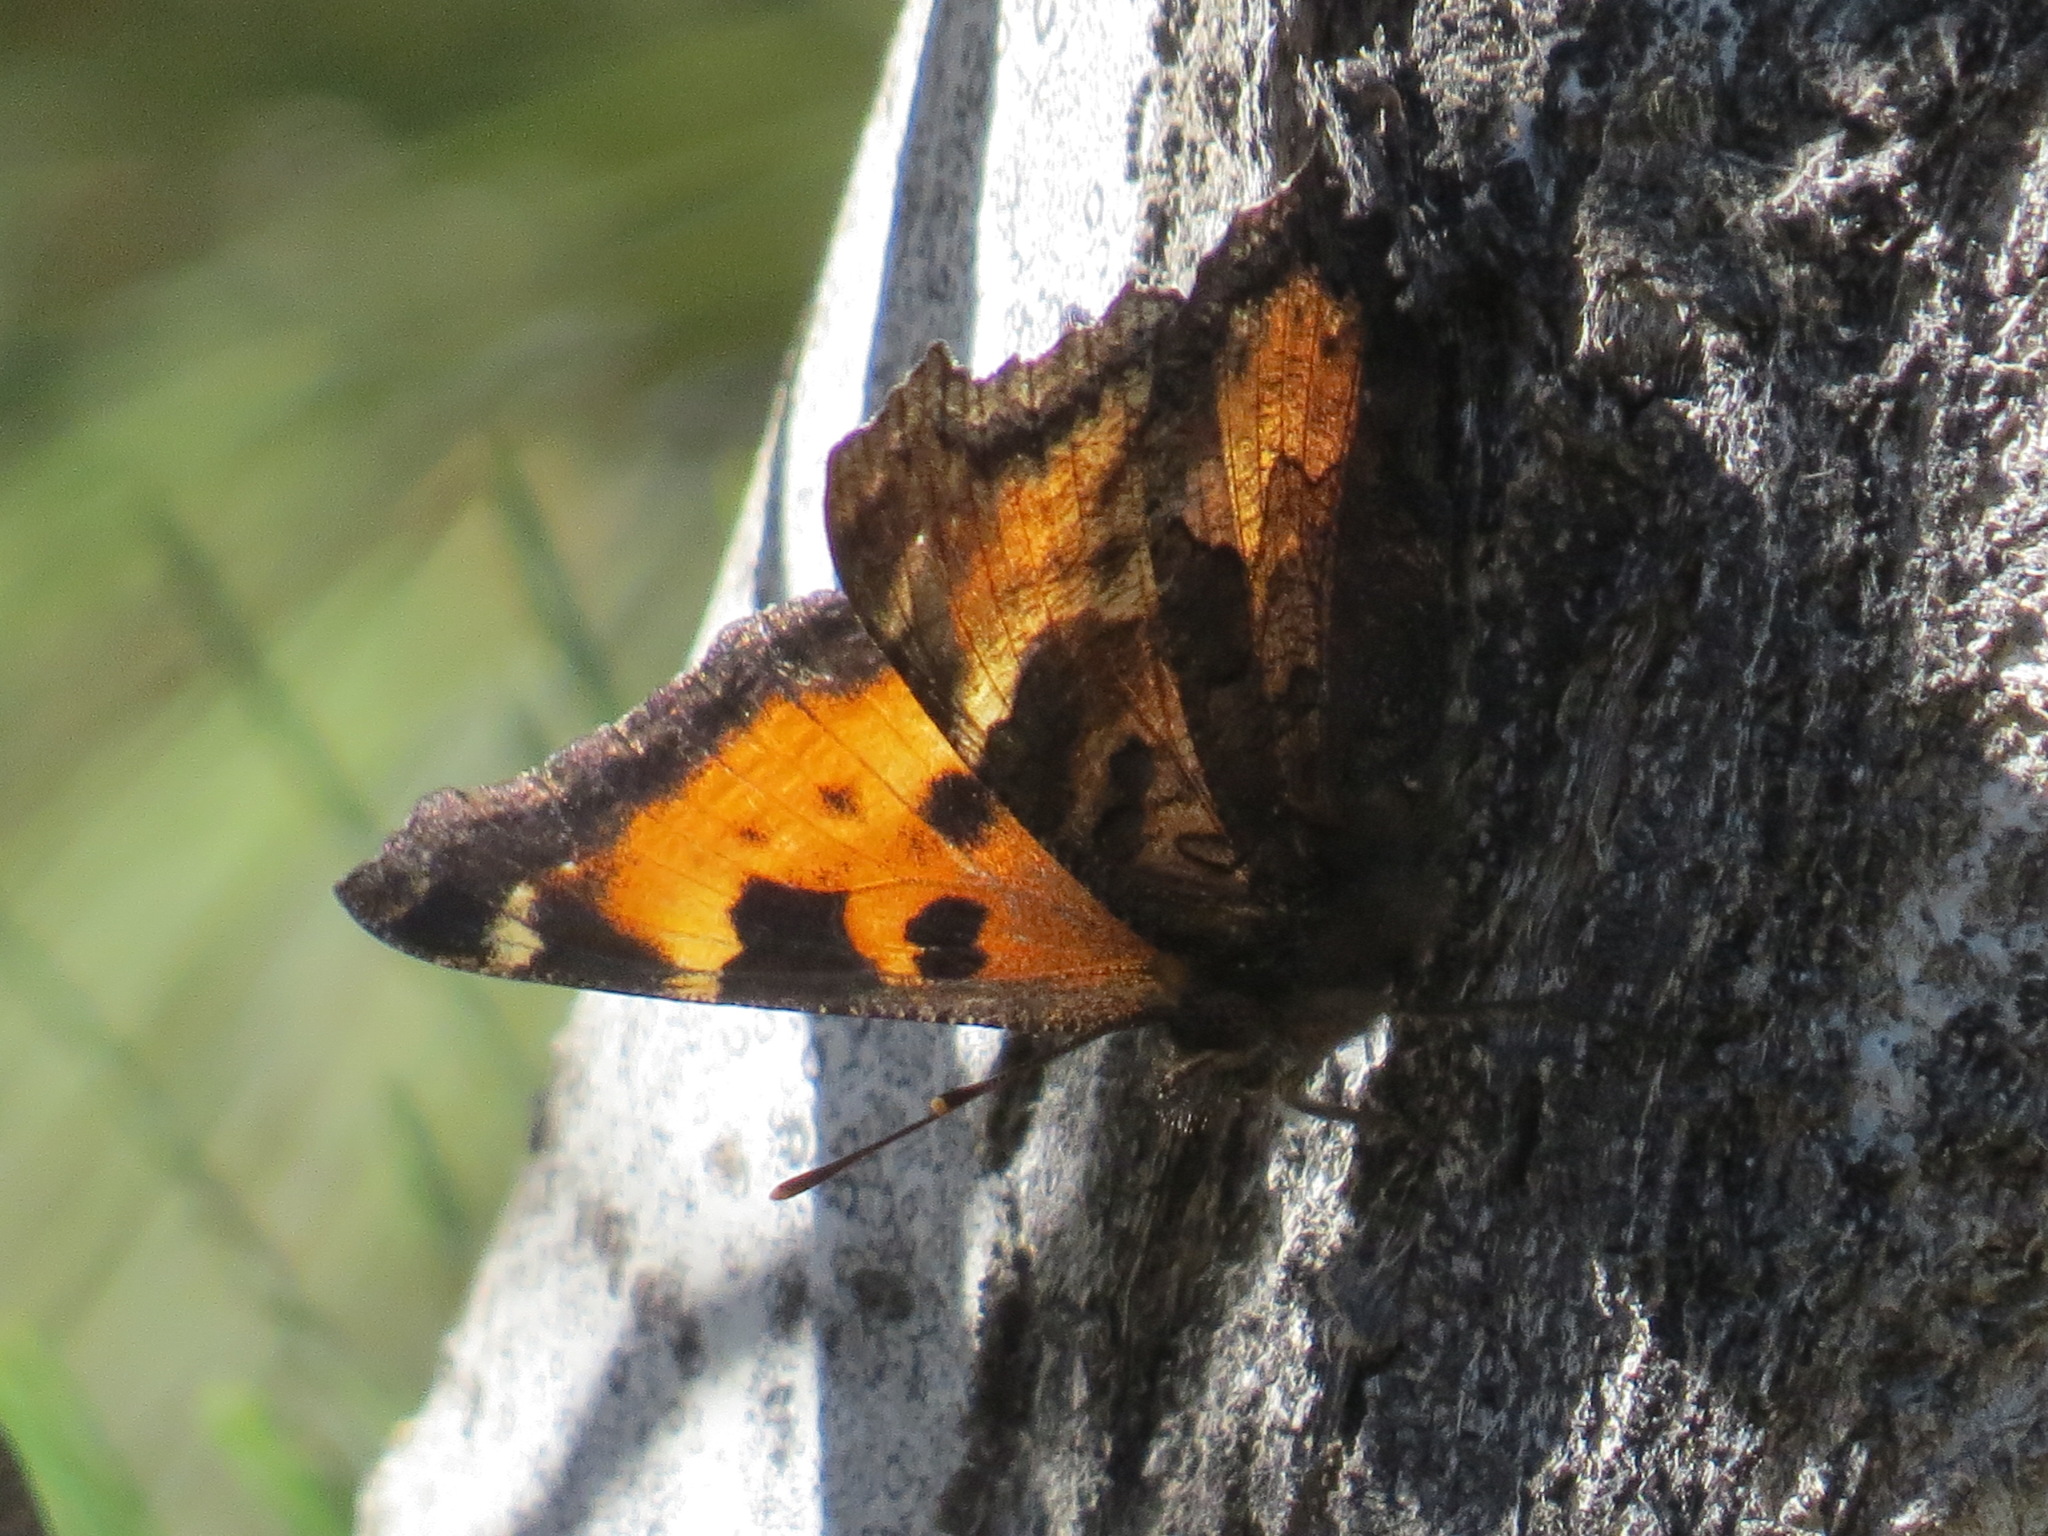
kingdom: Animalia
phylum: Arthropoda
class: Insecta
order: Lepidoptera
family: Nymphalidae
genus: Nymphalis
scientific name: Nymphalis californica
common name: California tortoiseshell
